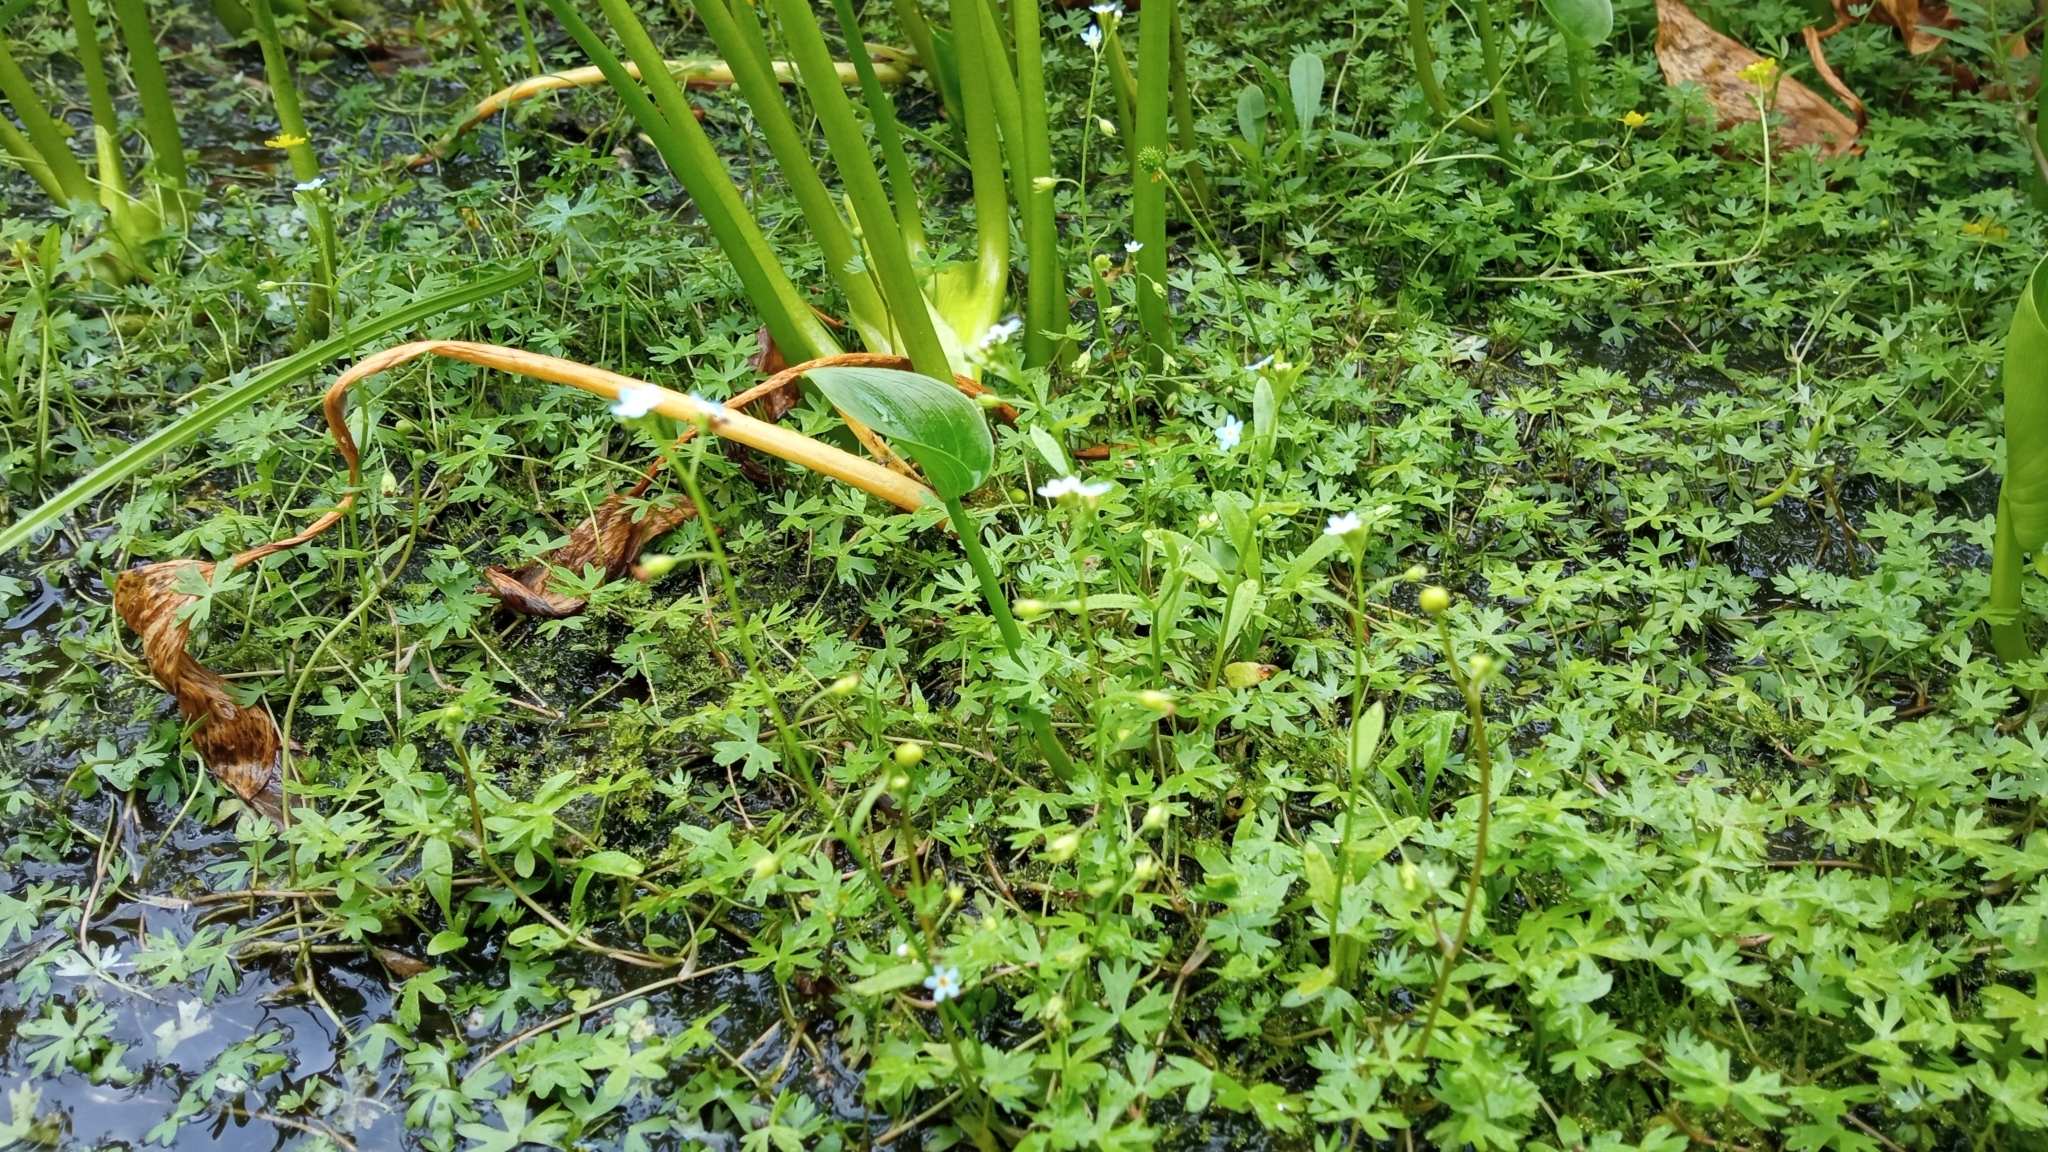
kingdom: Plantae
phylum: Tracheophyta
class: Magnoliopsida
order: Boraginales
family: Boraginaceae
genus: Myosotis
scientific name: Myosotis laxa
